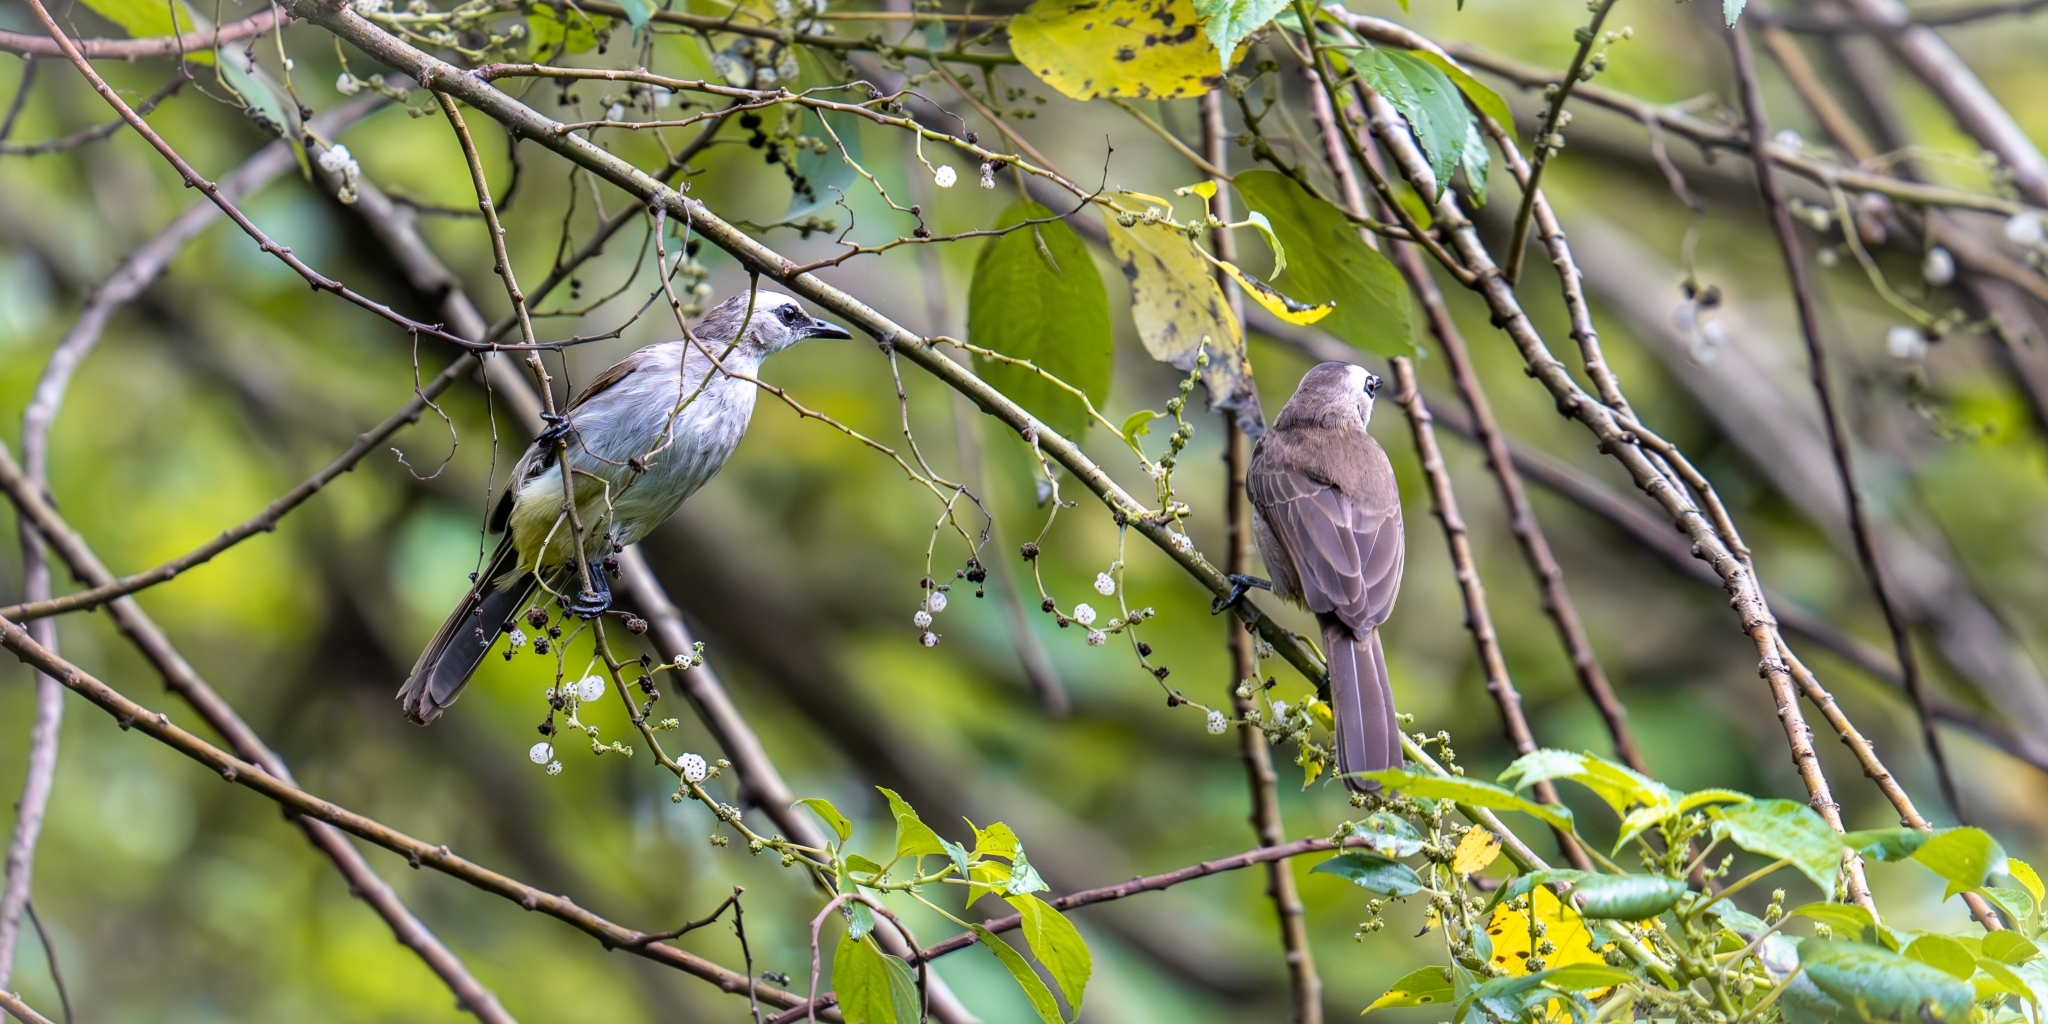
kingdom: Animalia
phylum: Chordata
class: Aves
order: Passeriformes
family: Pycnonotidae
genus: Pycnonotus
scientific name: Pycnonotus goiavier
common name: Yellow-vented bulbul
